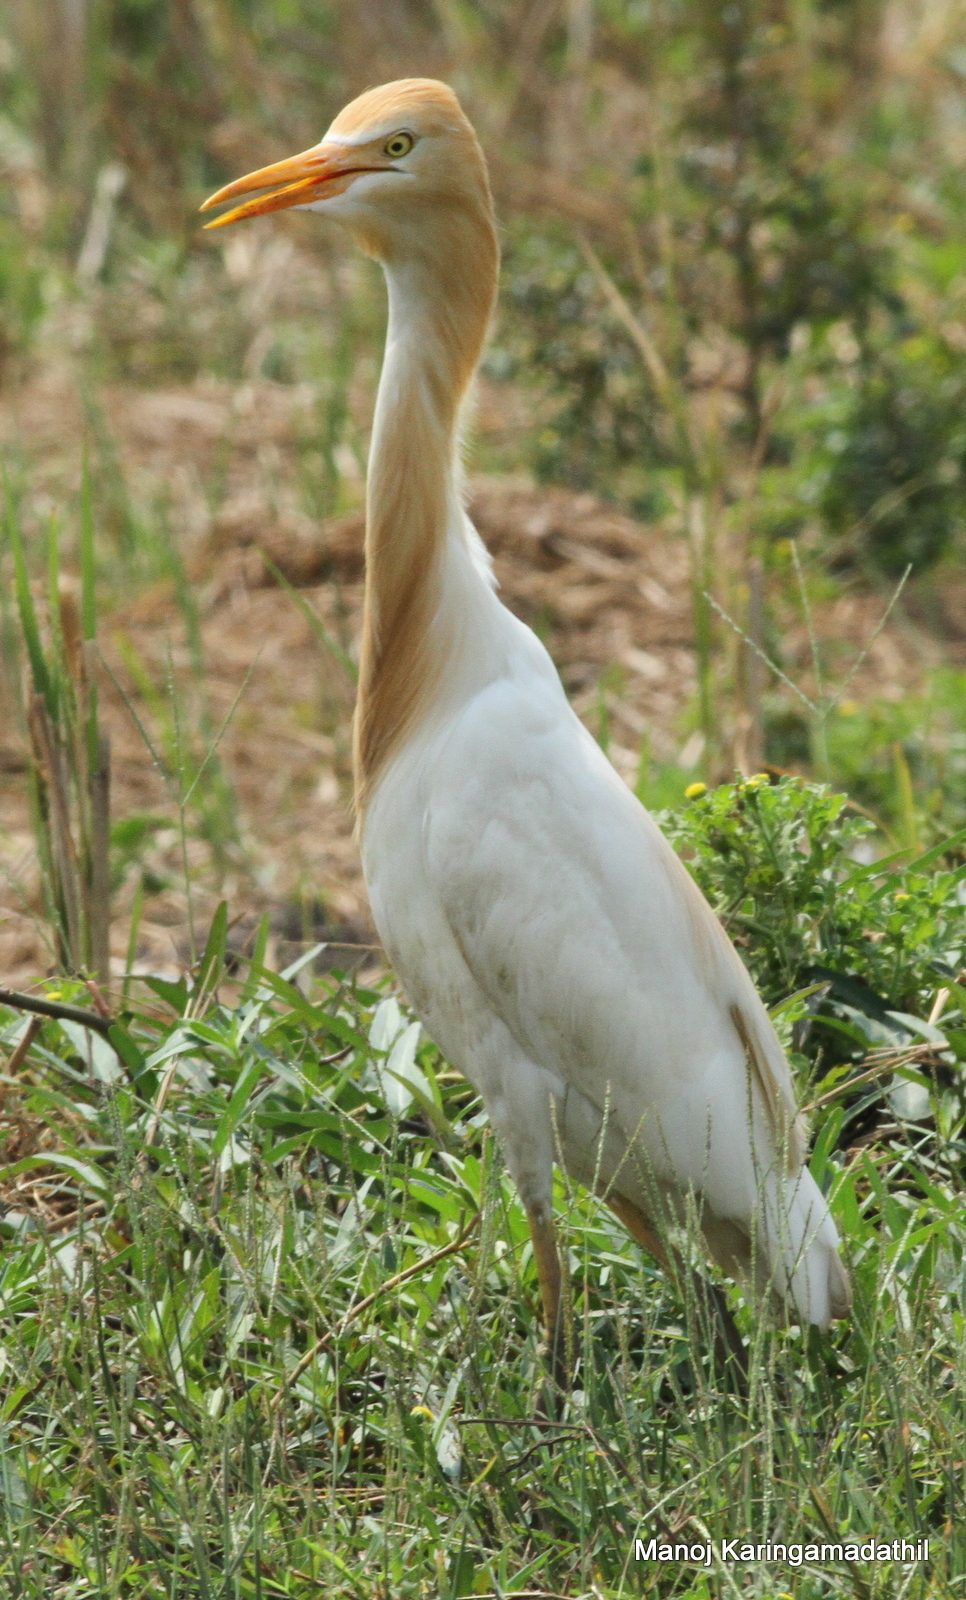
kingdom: Animalia
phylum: Chordata
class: Aves
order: Pelecaniformes
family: Ardeidae
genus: Bubulcus
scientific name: Bubulcus coromandus
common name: Eastern cattle egret
